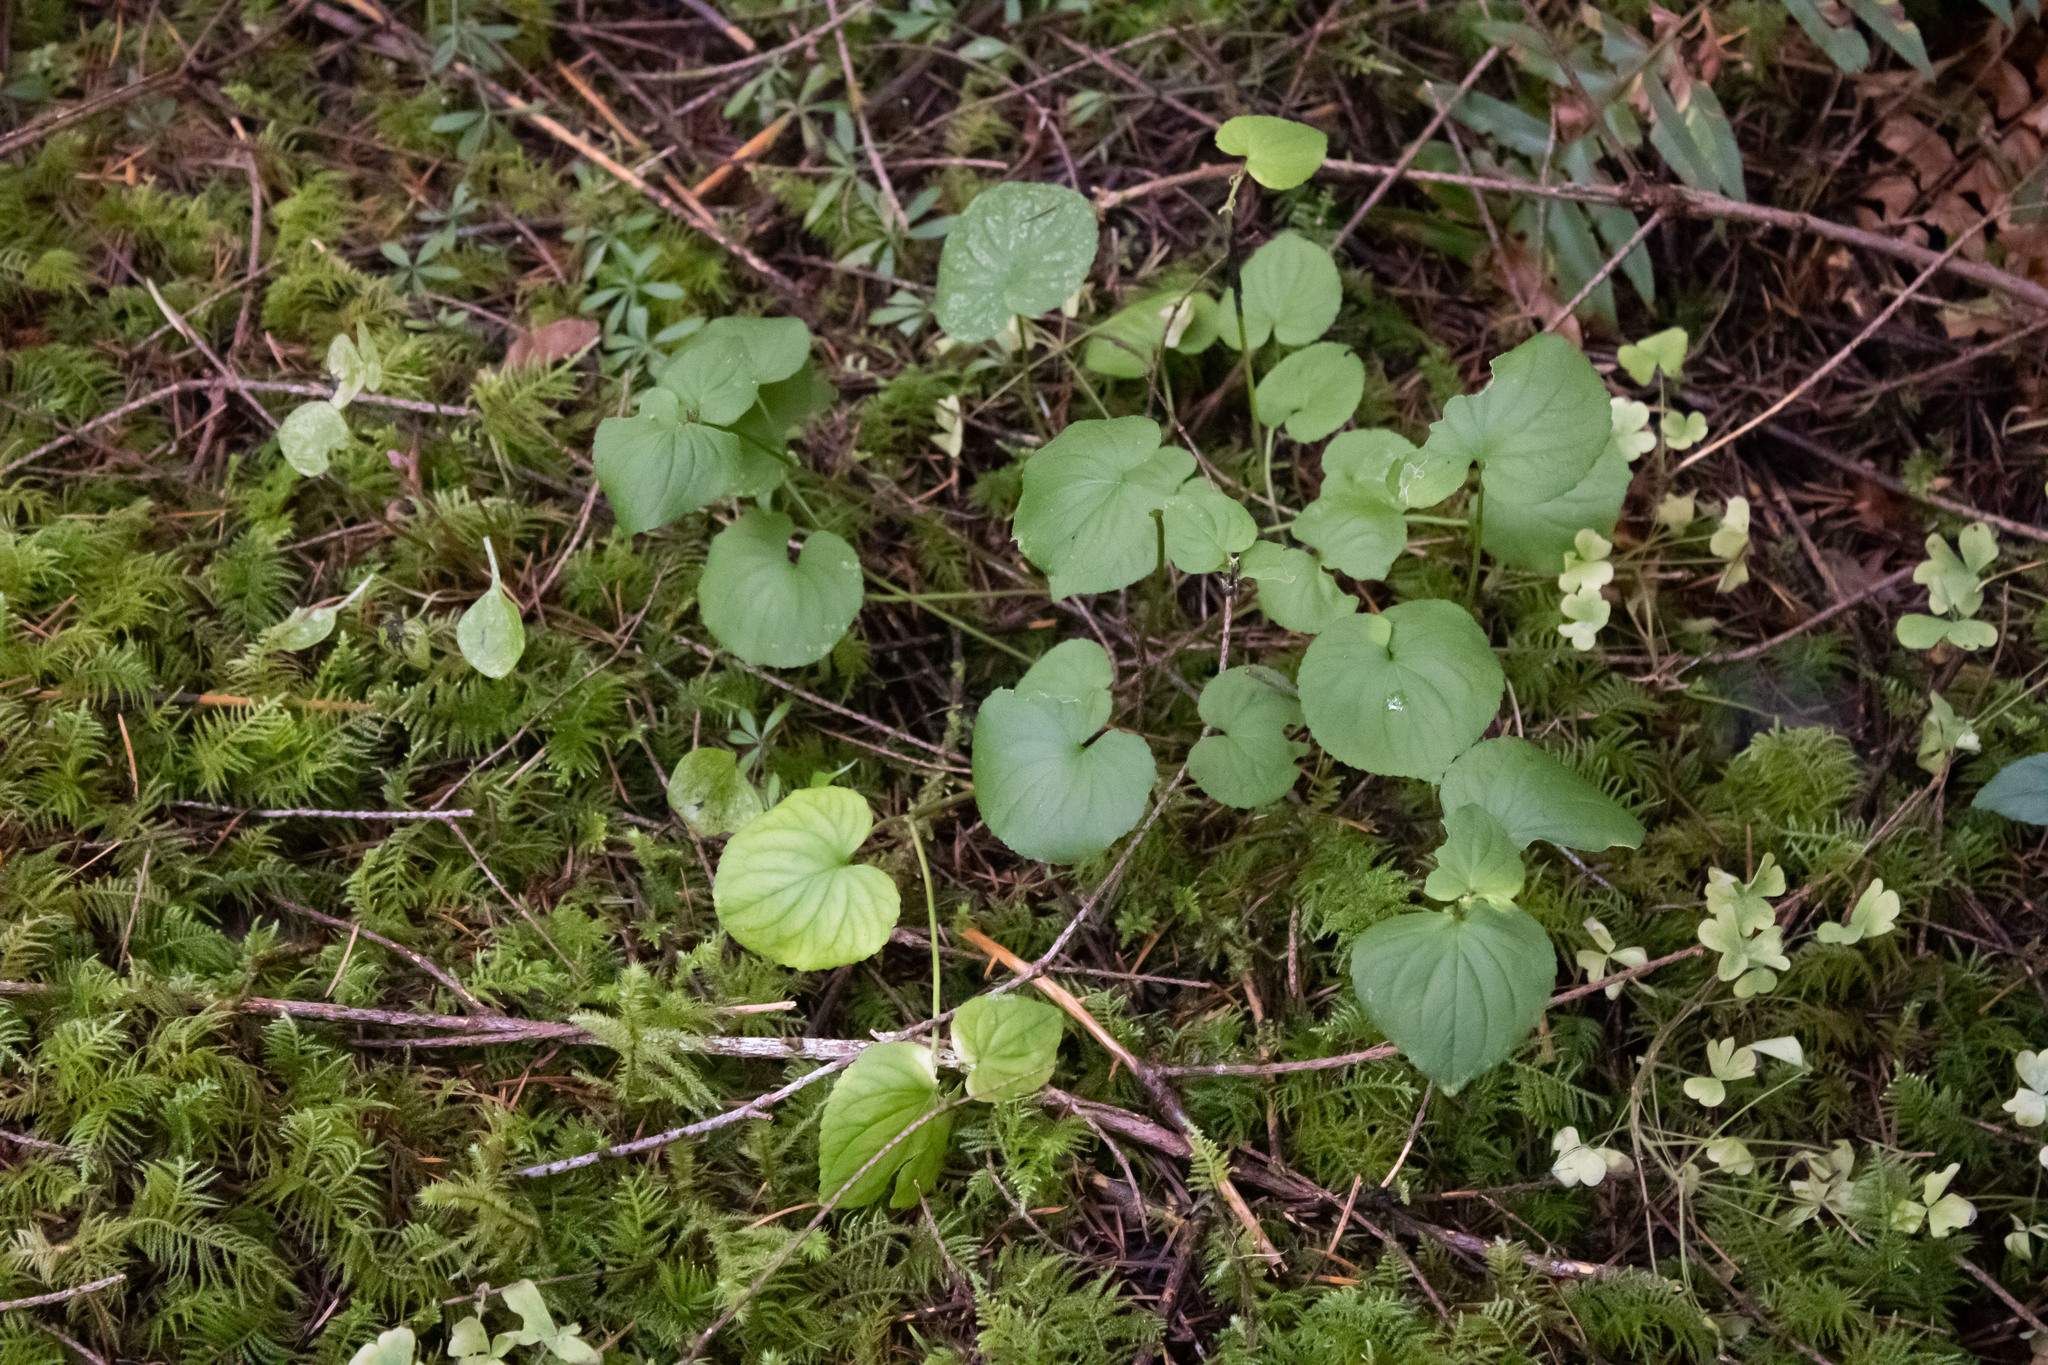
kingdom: Plantae
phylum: Tracheophyta
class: Magnoliopsida
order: Malpighiales
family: Violaceae
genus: Viola
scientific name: Viola glabella
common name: Stream violet
